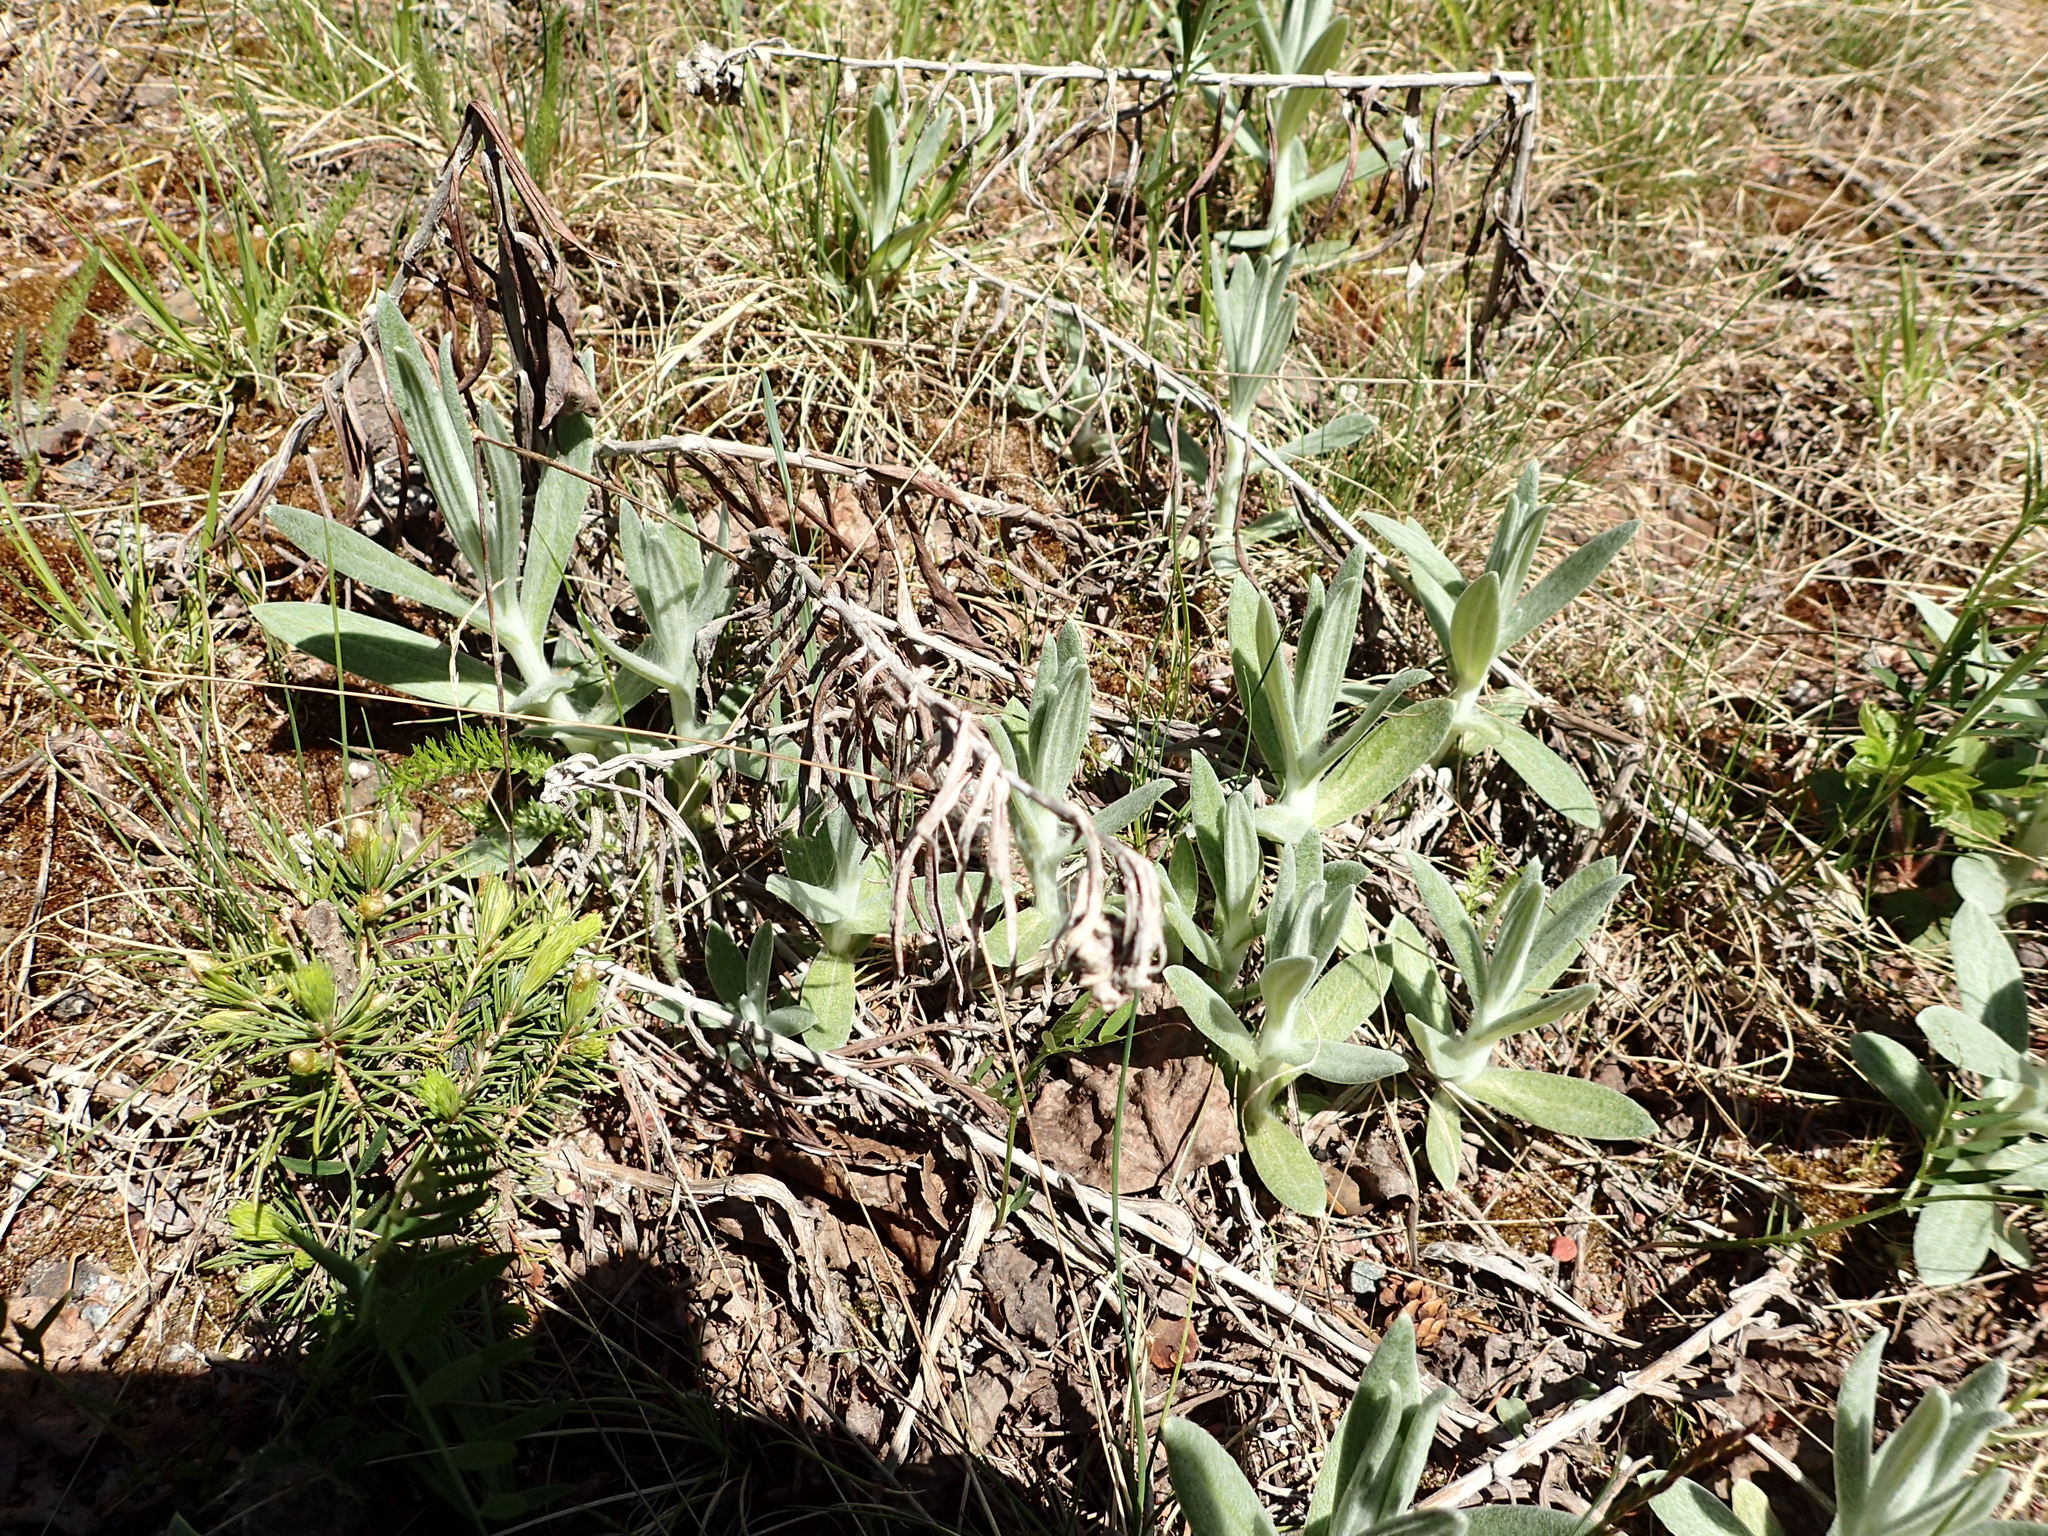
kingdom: Plantae
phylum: Tracheophyta
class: Magnoliopsida
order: Asterales
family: Asteraceae
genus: Anaphalis
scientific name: Anaphalis margaritacea
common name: Pearly everlasting
